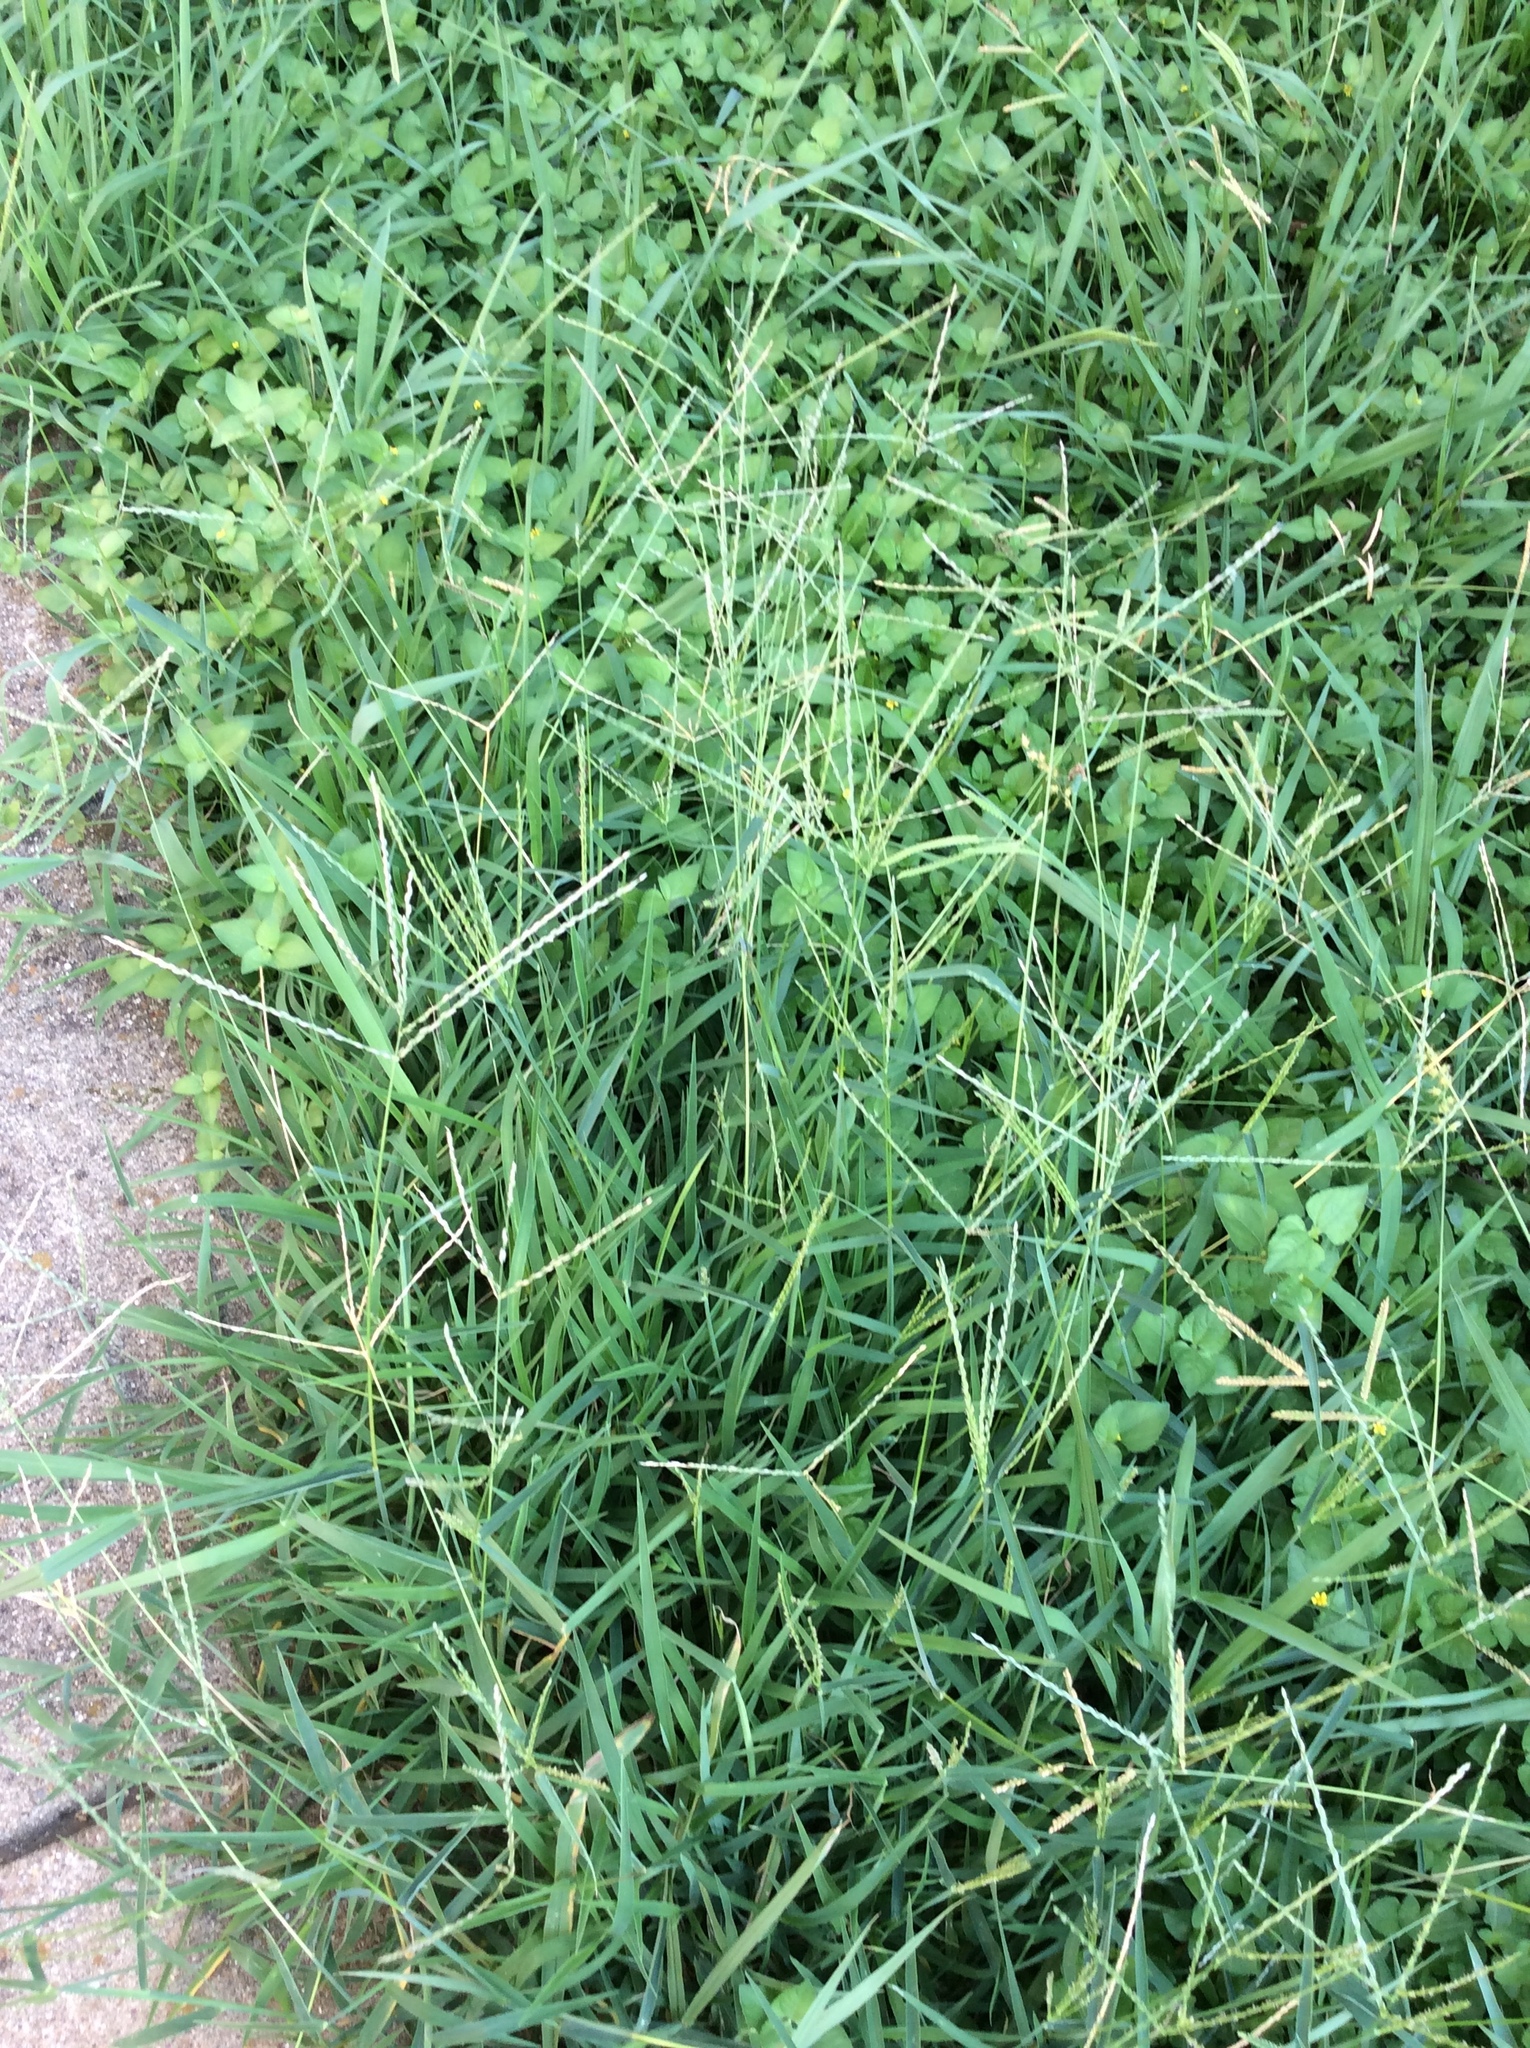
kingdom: Plantae
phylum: Tracheophyta
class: Liliopsida
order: Poales
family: Poaceae
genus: Cynodon
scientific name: Cynodon dactylon
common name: Bermuda grass
